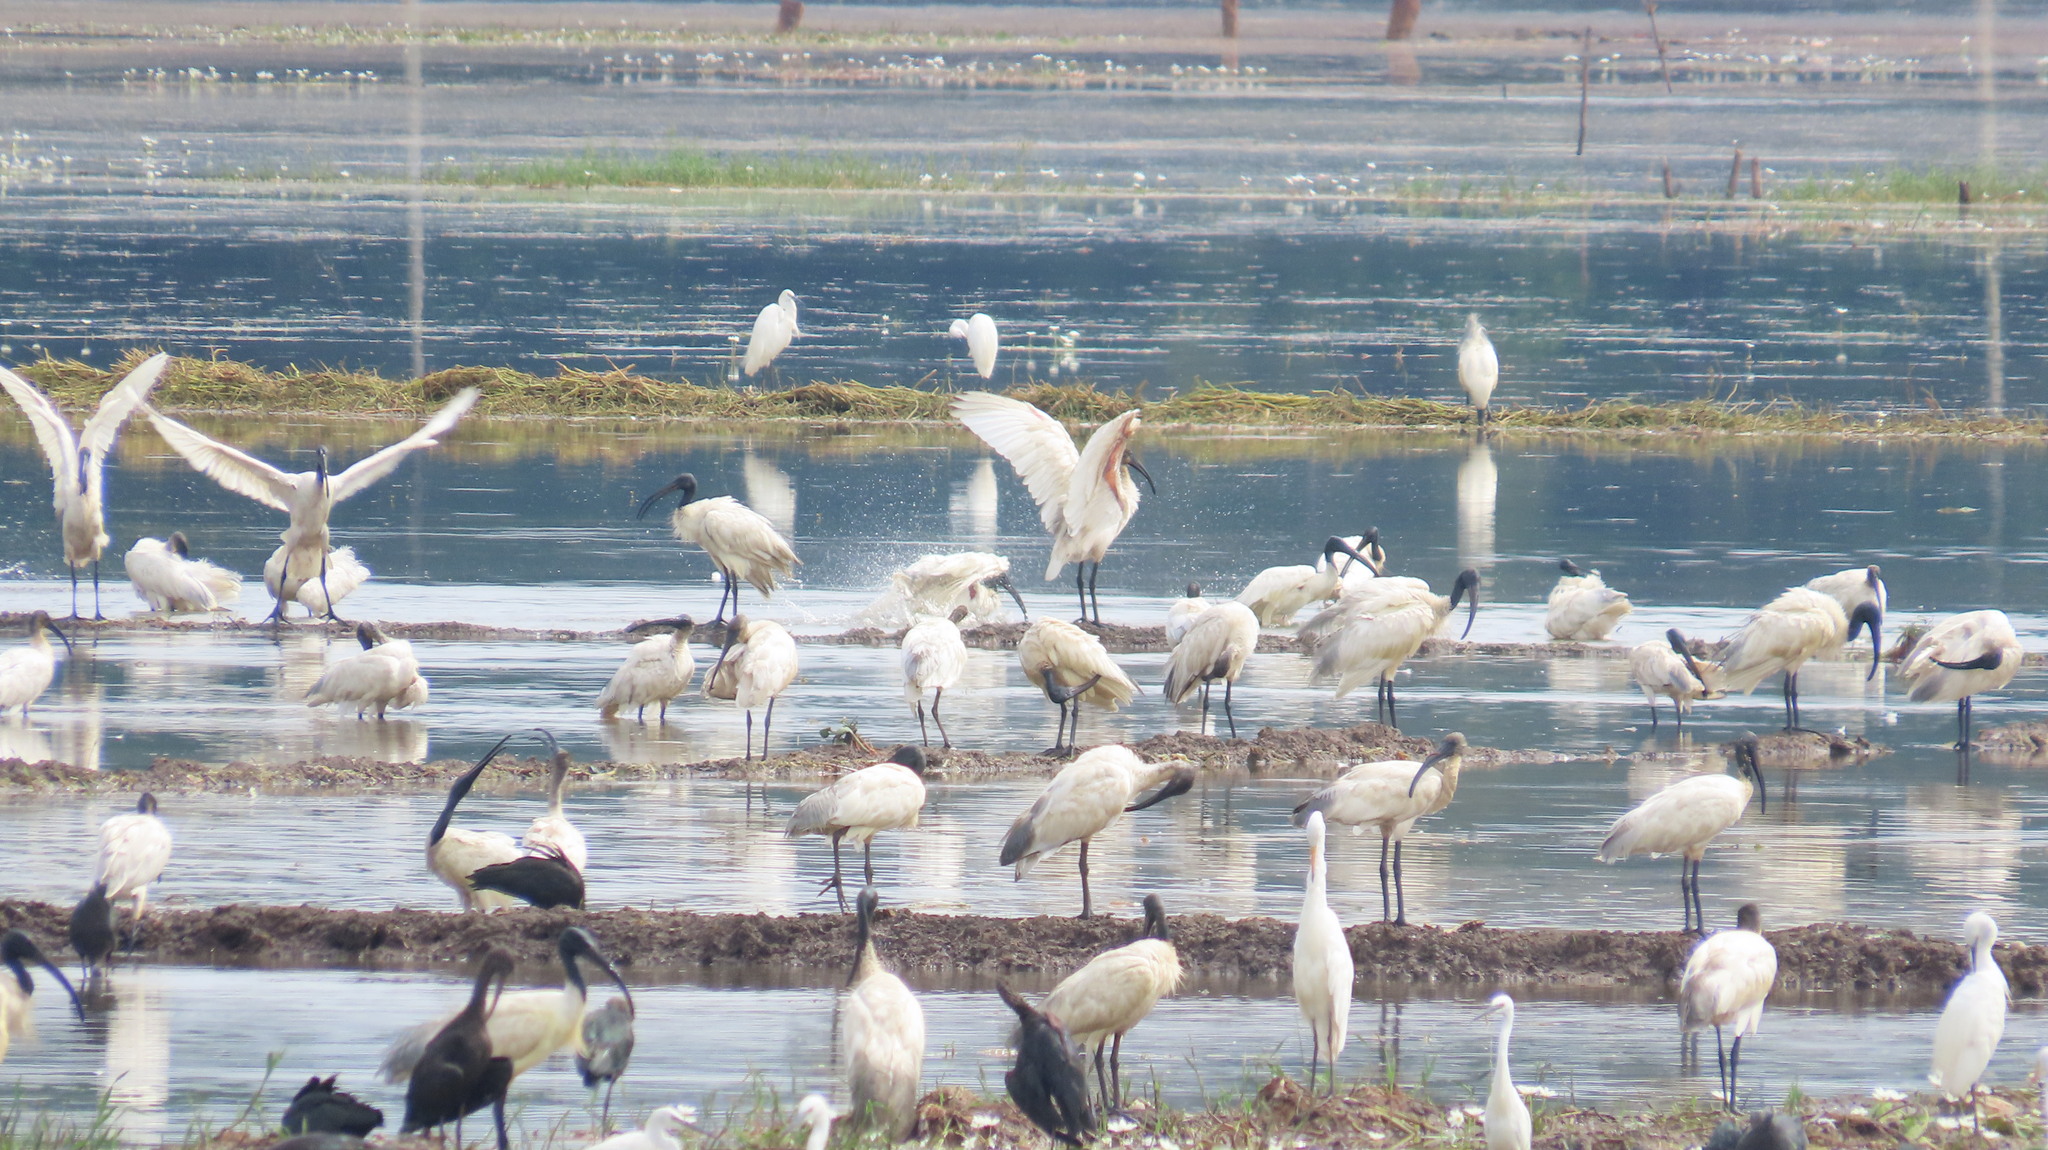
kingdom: Animalia
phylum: Chordata
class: Aves
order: Pelecaniformes
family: Threskiornithidae
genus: Threskiornis
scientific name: Threskiornis melanocephalus
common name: Black-headed ibis
